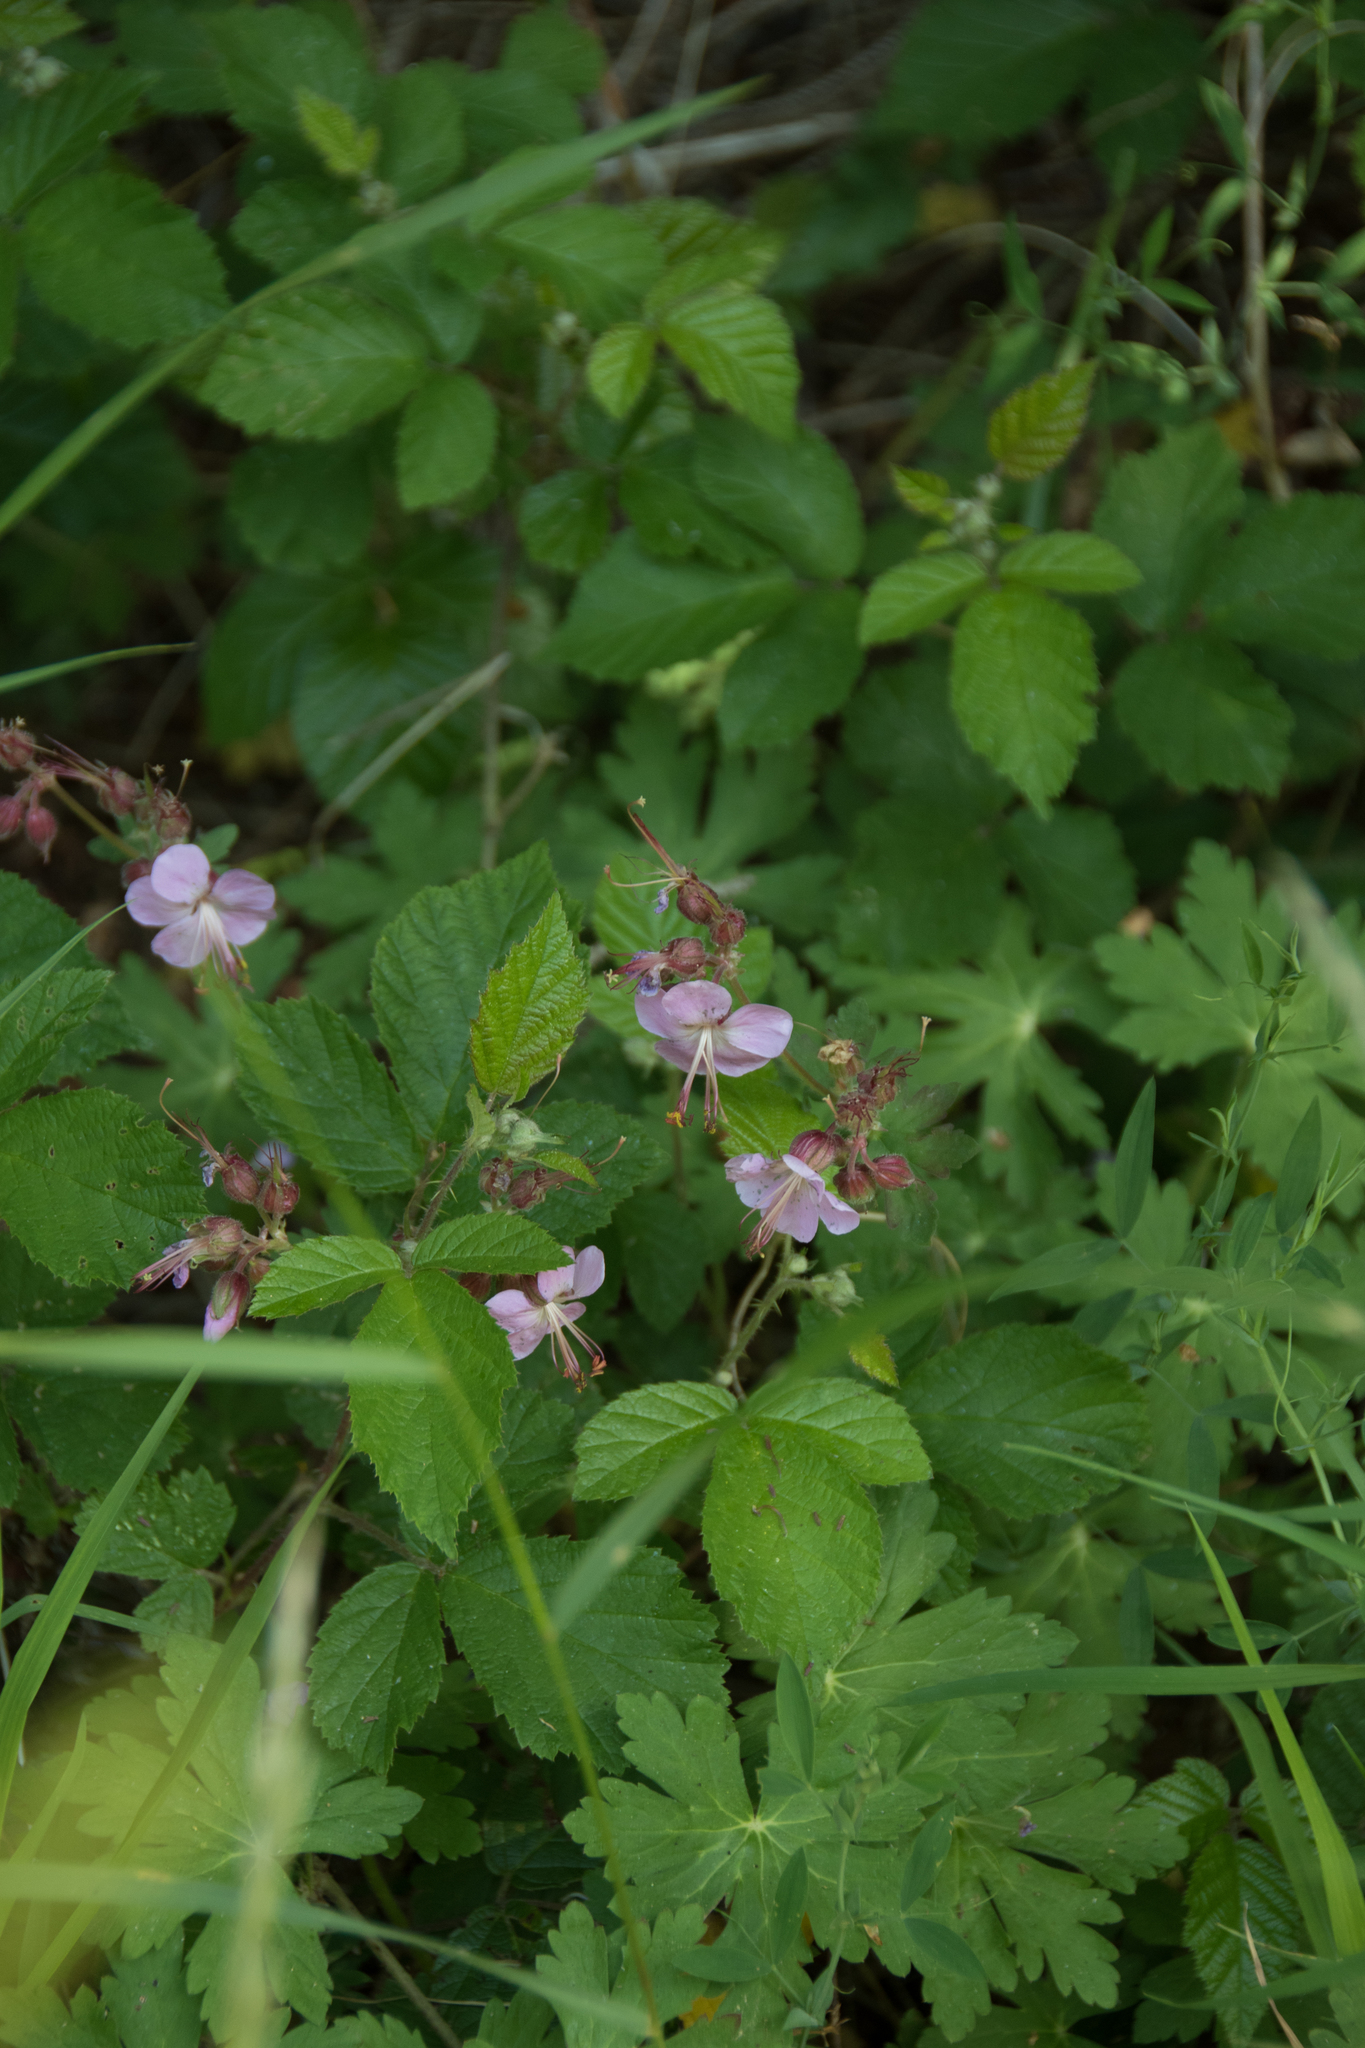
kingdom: Plantae
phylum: Tracheophyta
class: Magnoliopsida
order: Geraniales
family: Geraniaceae
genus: Geranium
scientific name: Geranium phaeum
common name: Dusky crane's-bill
